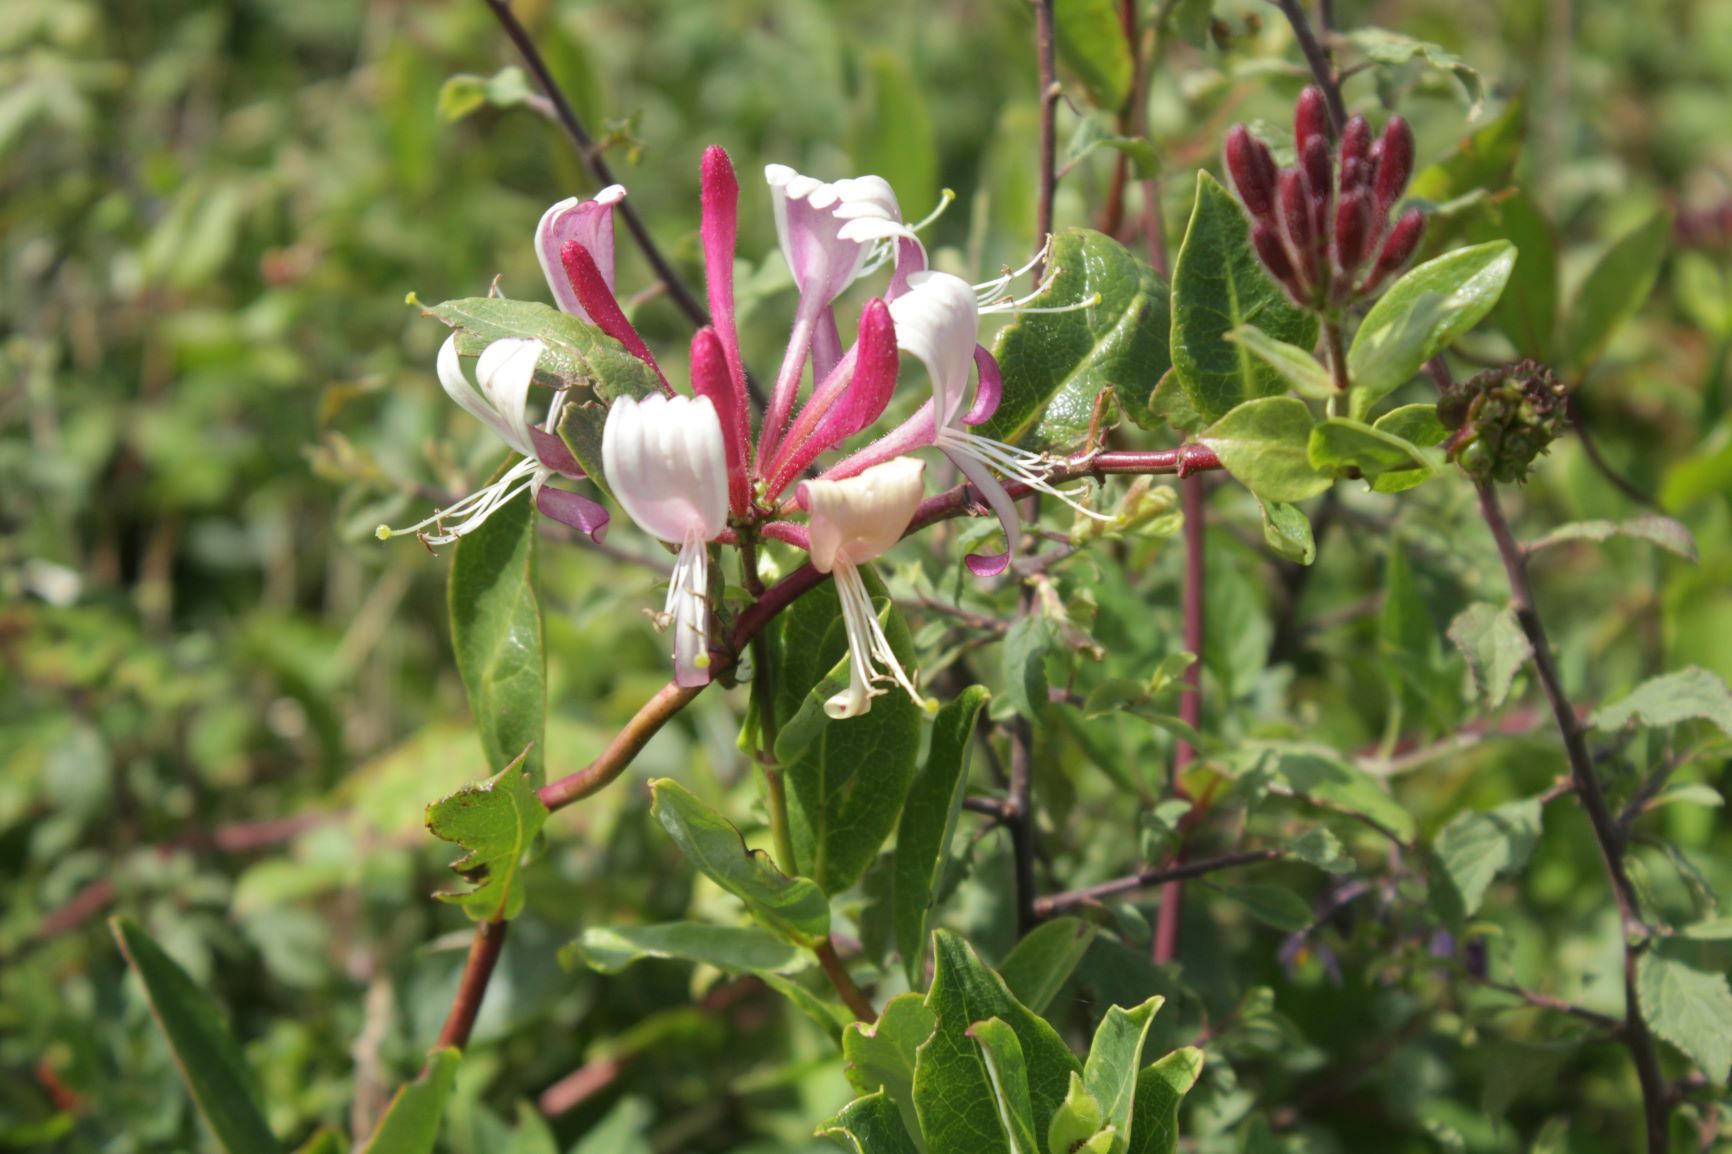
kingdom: Plantae
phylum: Tracheophyta
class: Magnoliopsida
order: Dipsacales
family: Caprifoliaceae
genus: Lonicera
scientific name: Lonicera periclymenum
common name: European honeysuckle
